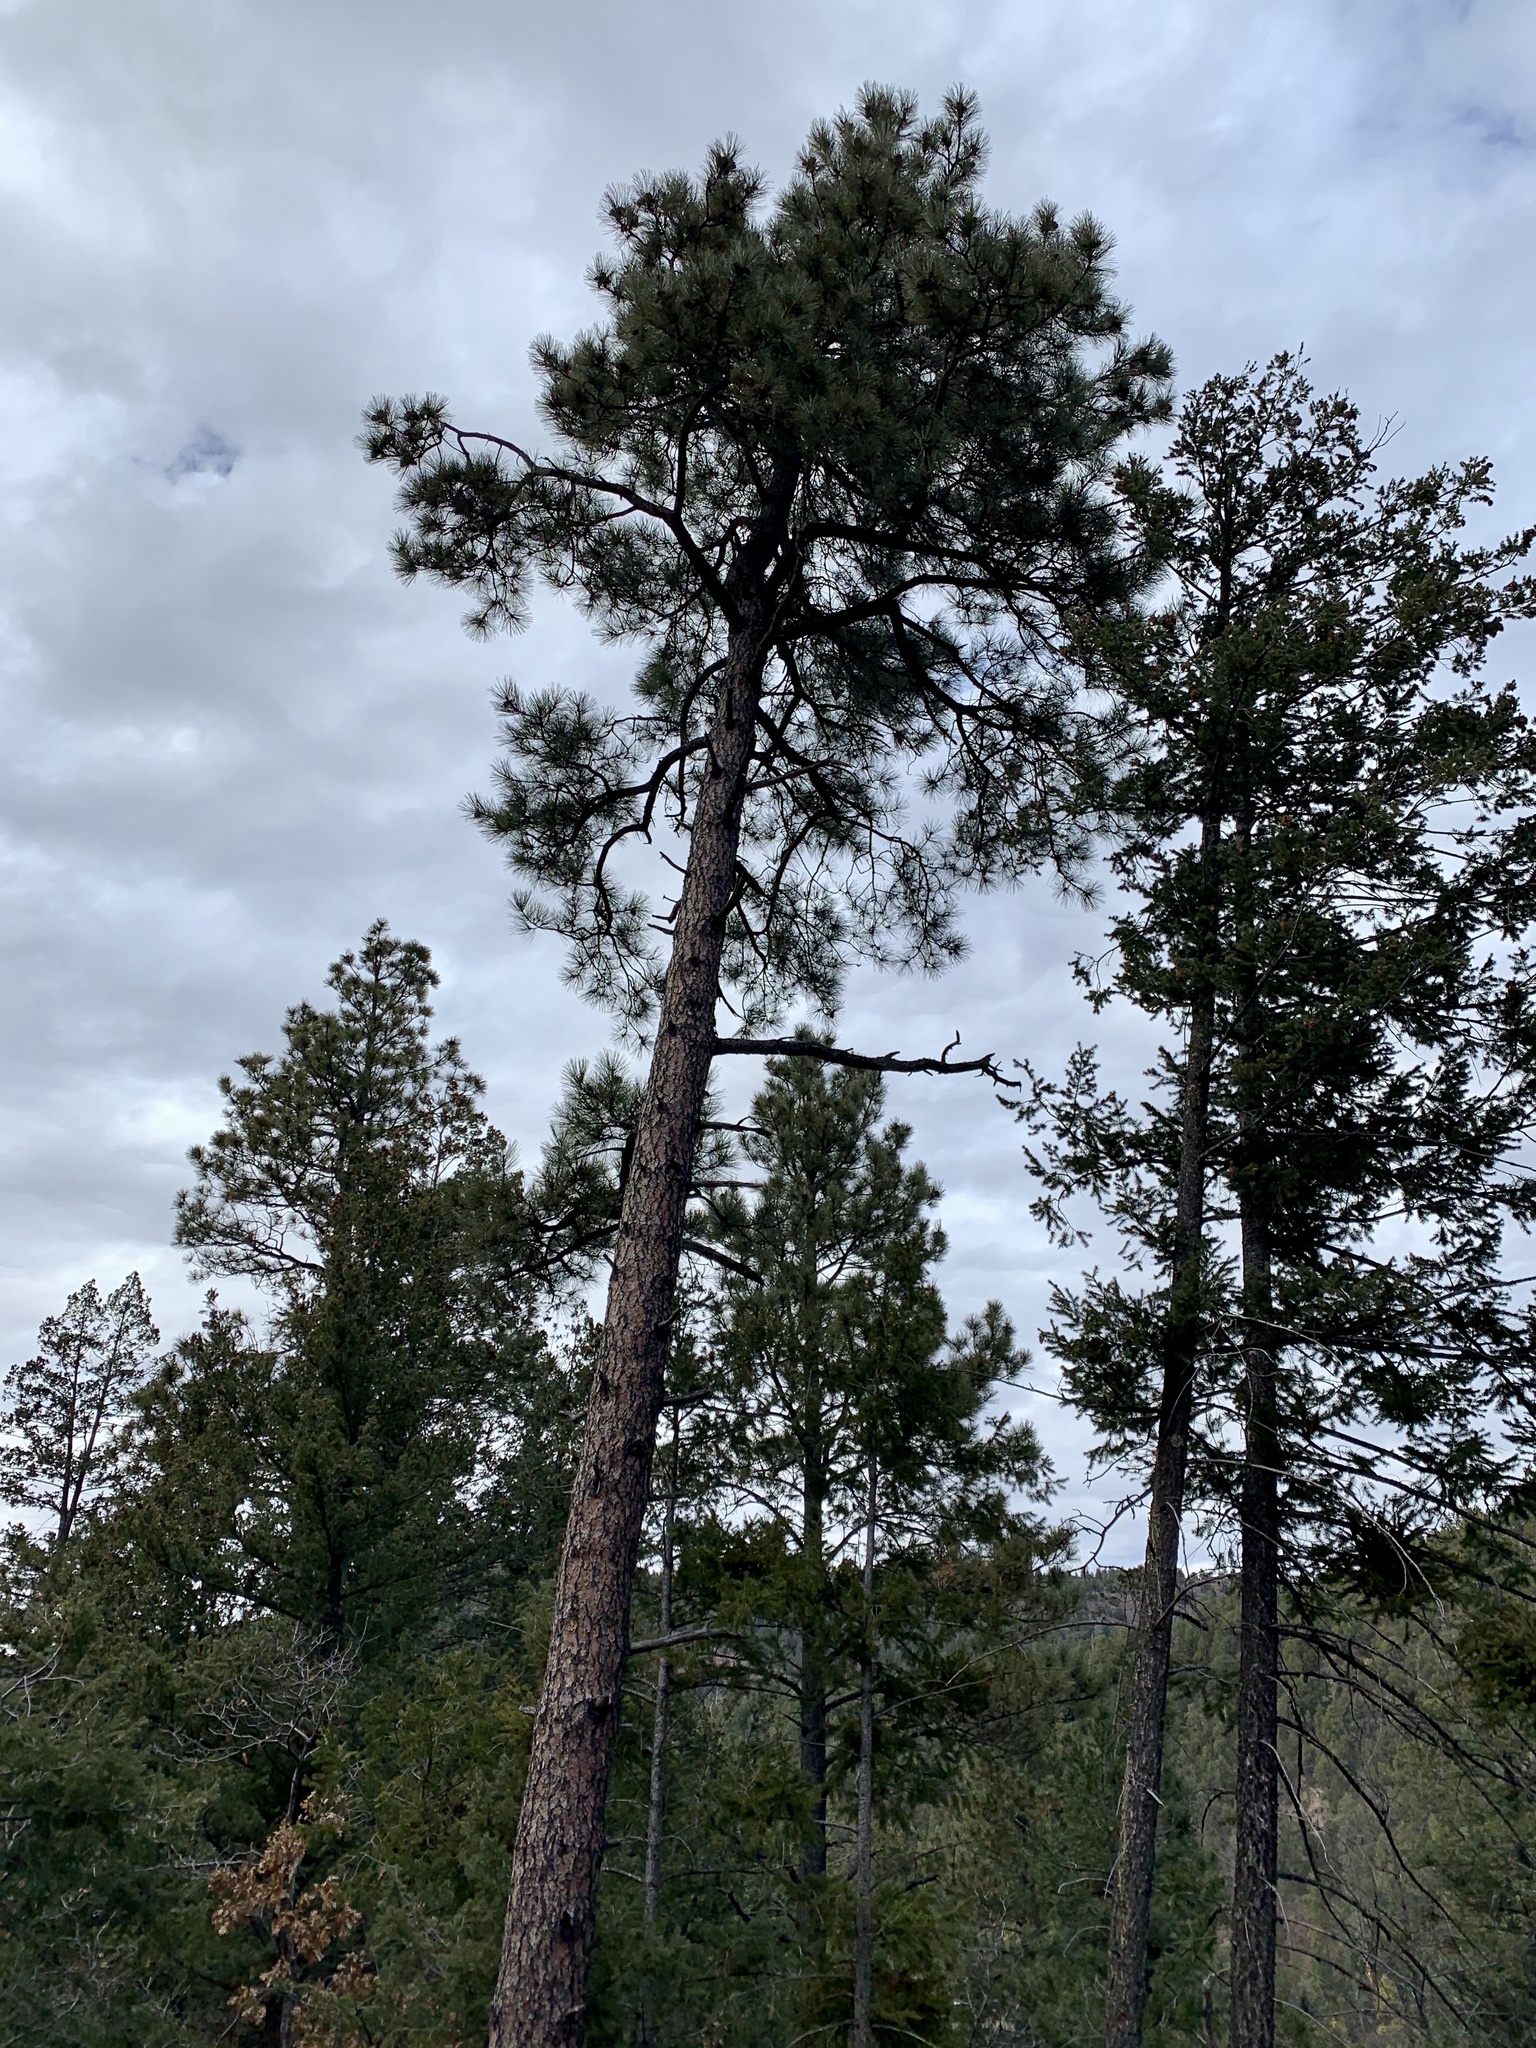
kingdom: Plantae
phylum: Tracheophyta
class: Pinopsida
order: Pinales
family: Pinaceae
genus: Pinus
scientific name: Pinus ponderosa
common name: Western yellow-pine
